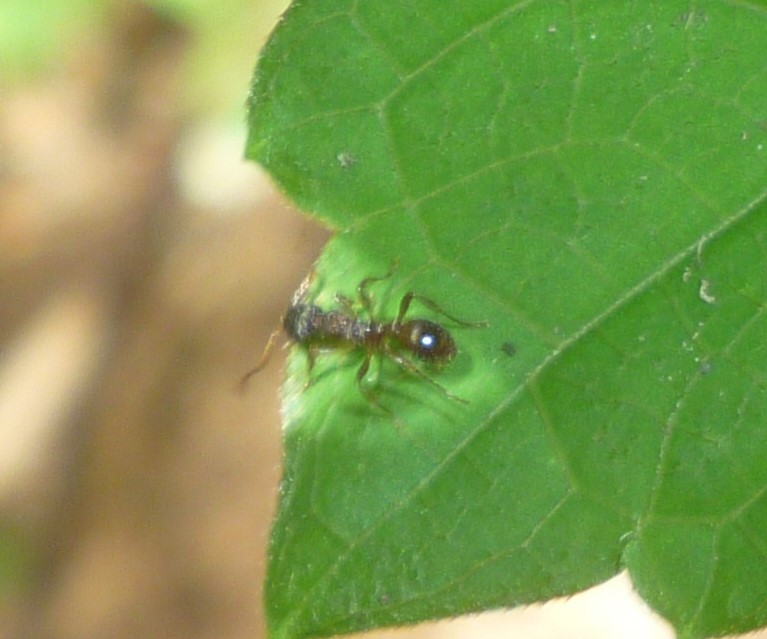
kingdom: Animalia
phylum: Arthropoda
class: Insecta
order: Hymenoptera
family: Formicidae
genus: Myrmica
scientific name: Myrmica
